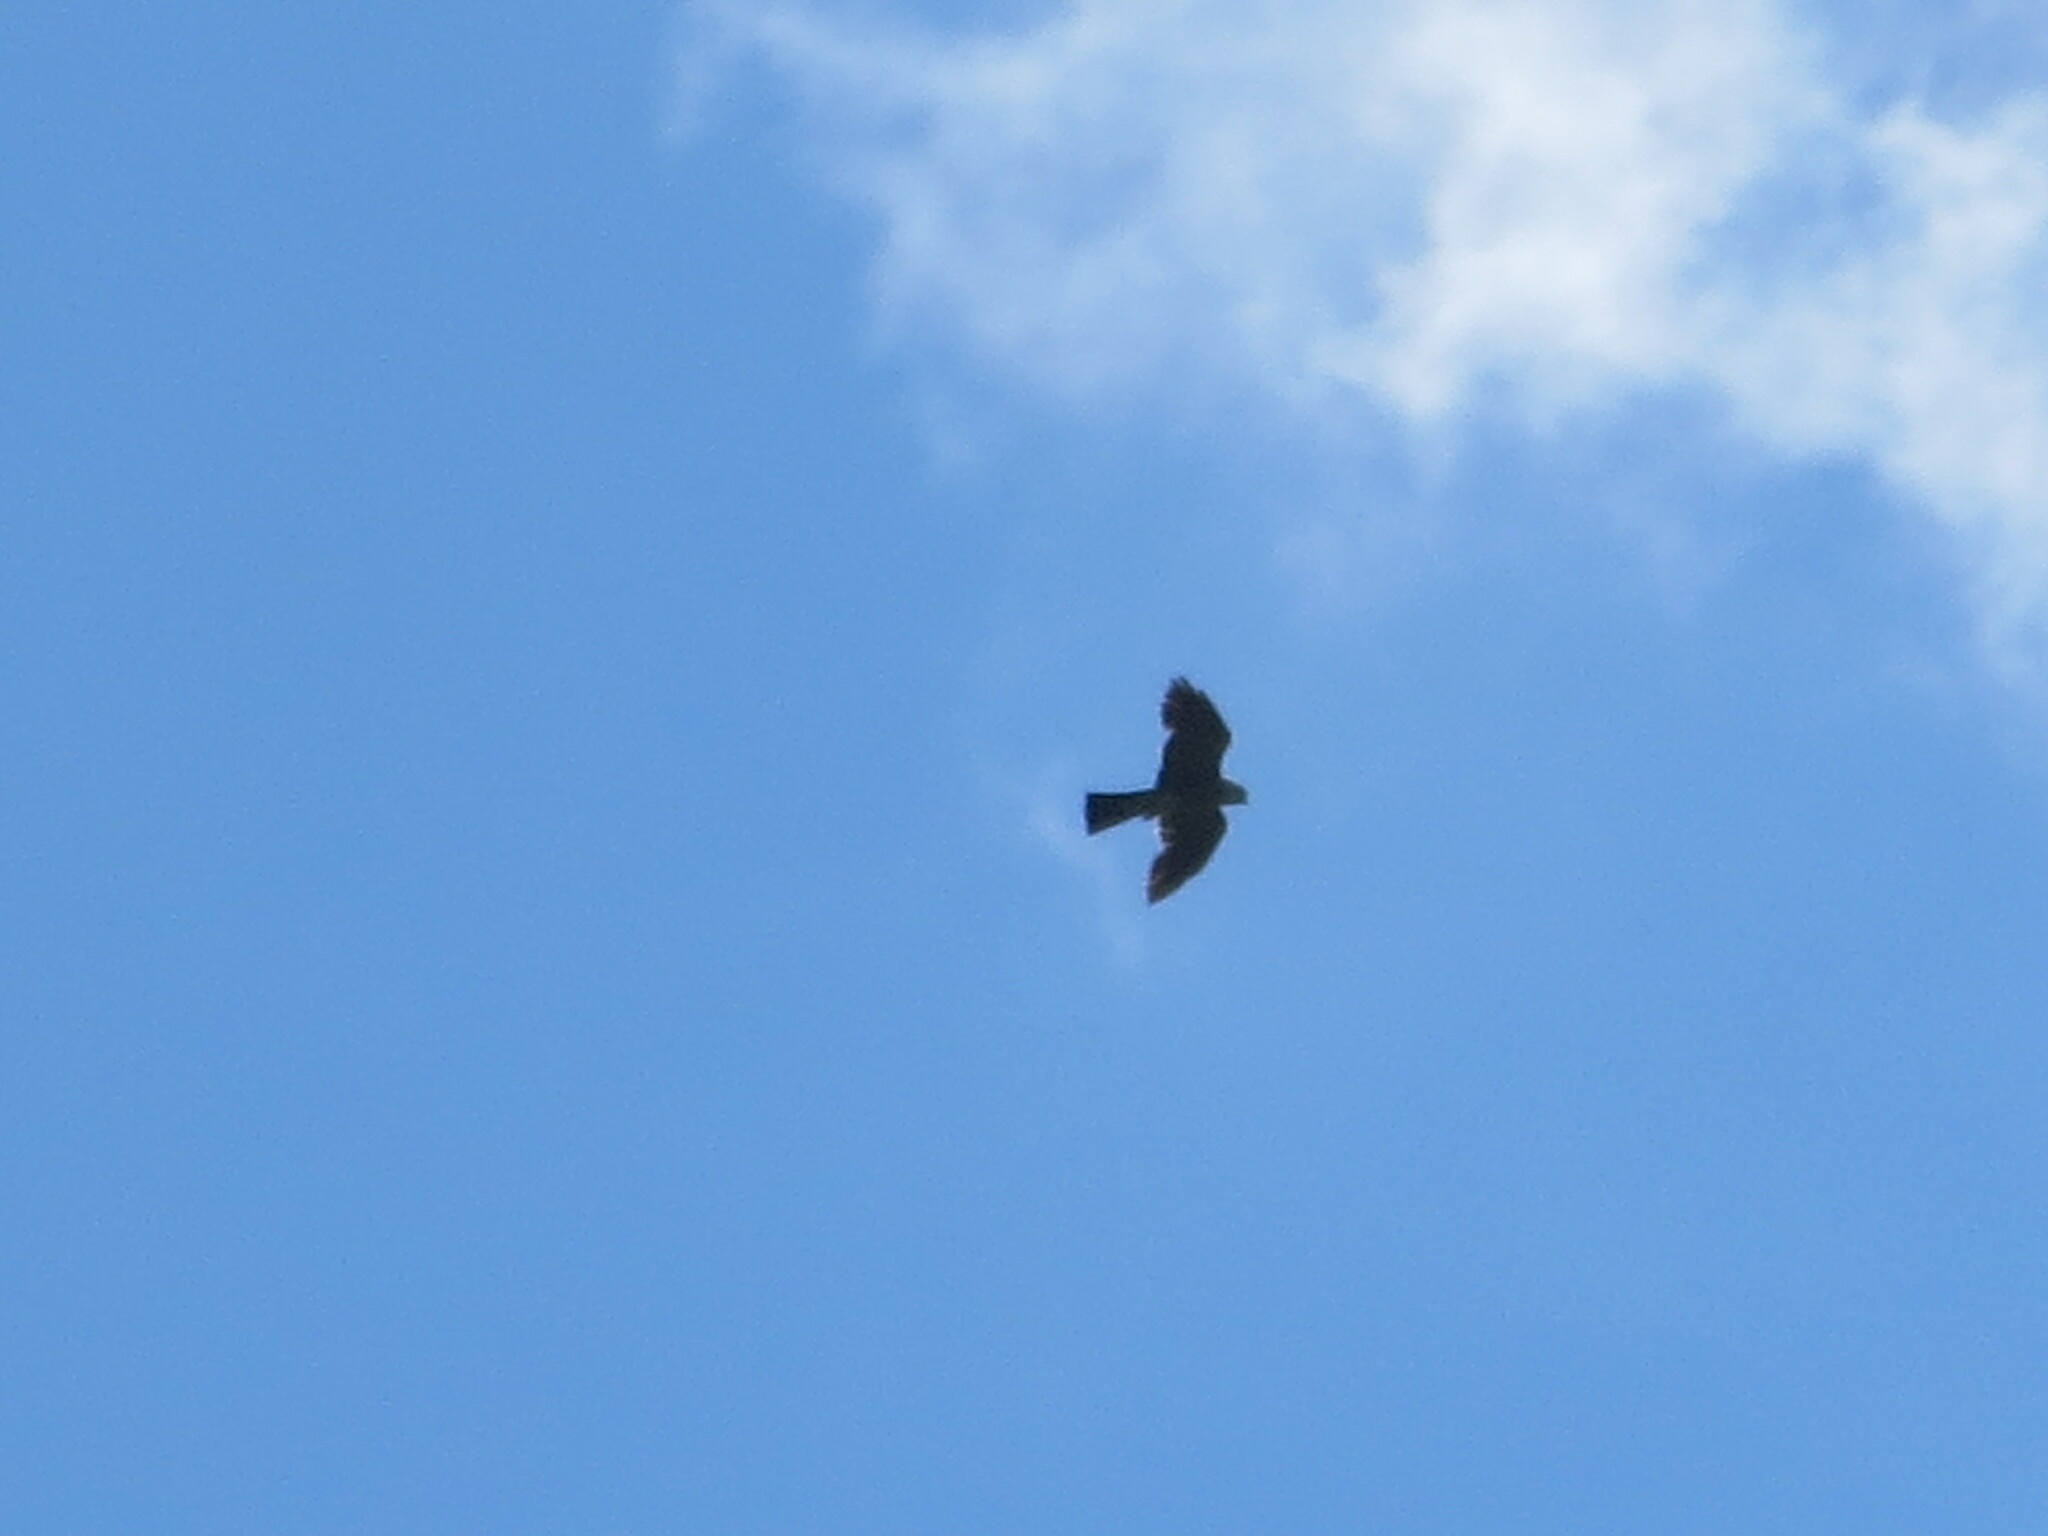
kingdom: Animalia
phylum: Chordata
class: Aves
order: Accipitriformes
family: Accipitridae
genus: Ictinia
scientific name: Ictinia mississippiensis
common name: Mississippi kite
